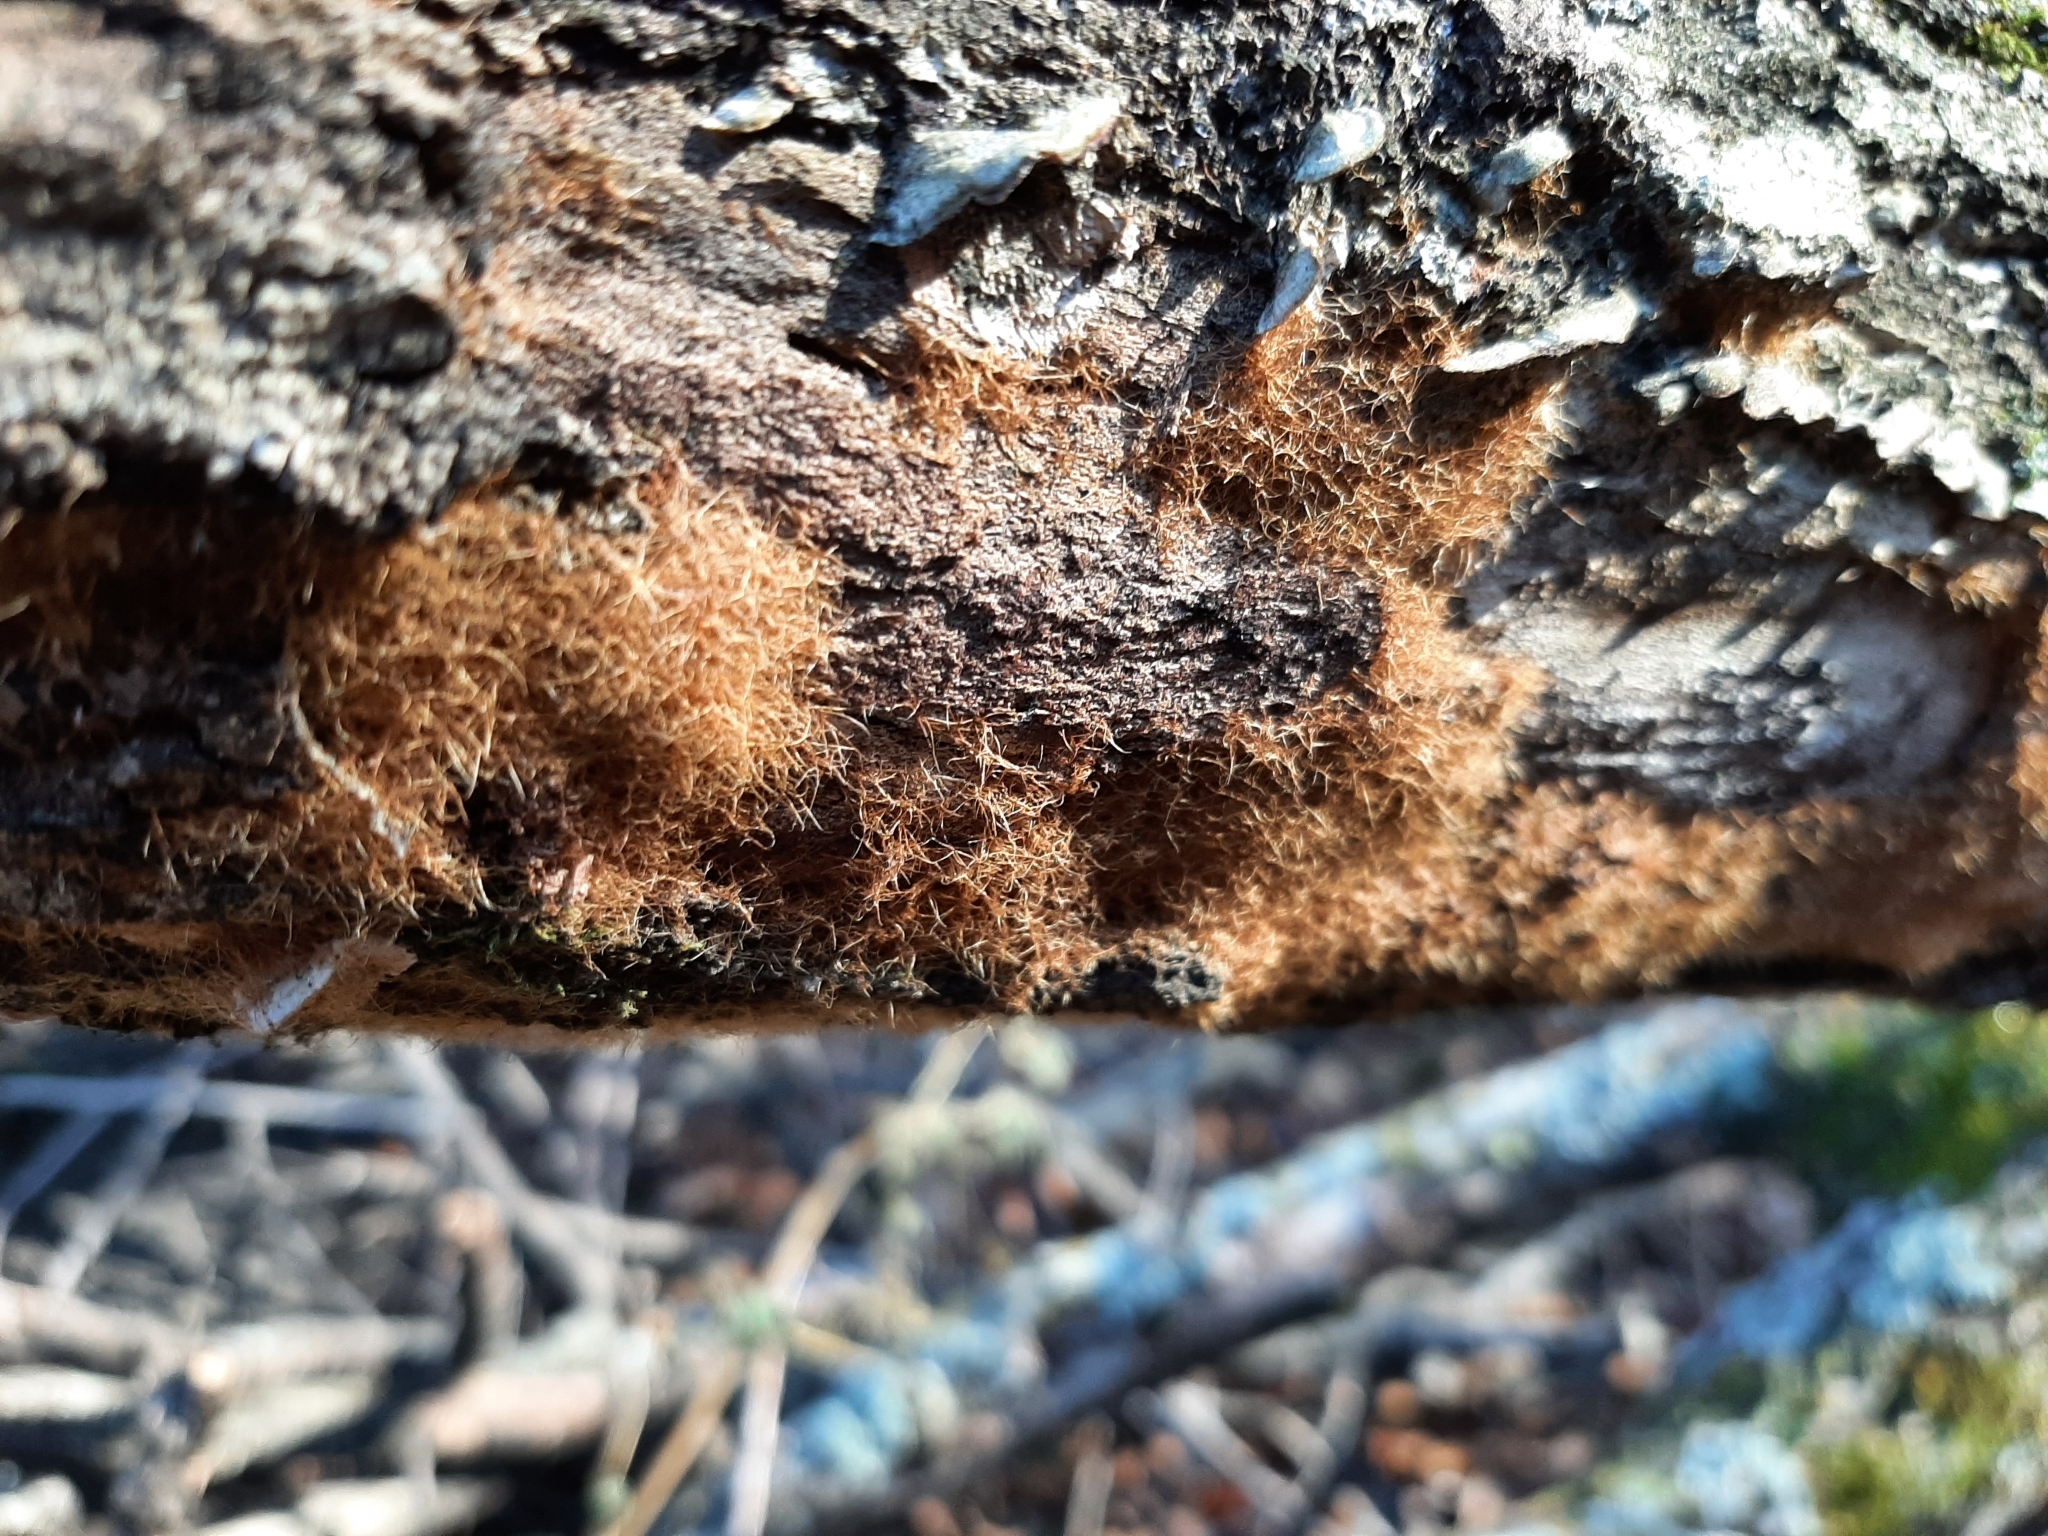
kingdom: Fungi
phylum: Basidiomycota
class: Agaricomycetes
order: Agaricales
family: Psathyrellaceae
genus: Coprinellus
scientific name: Coprinellus domesticus
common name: Firerug inkcap
